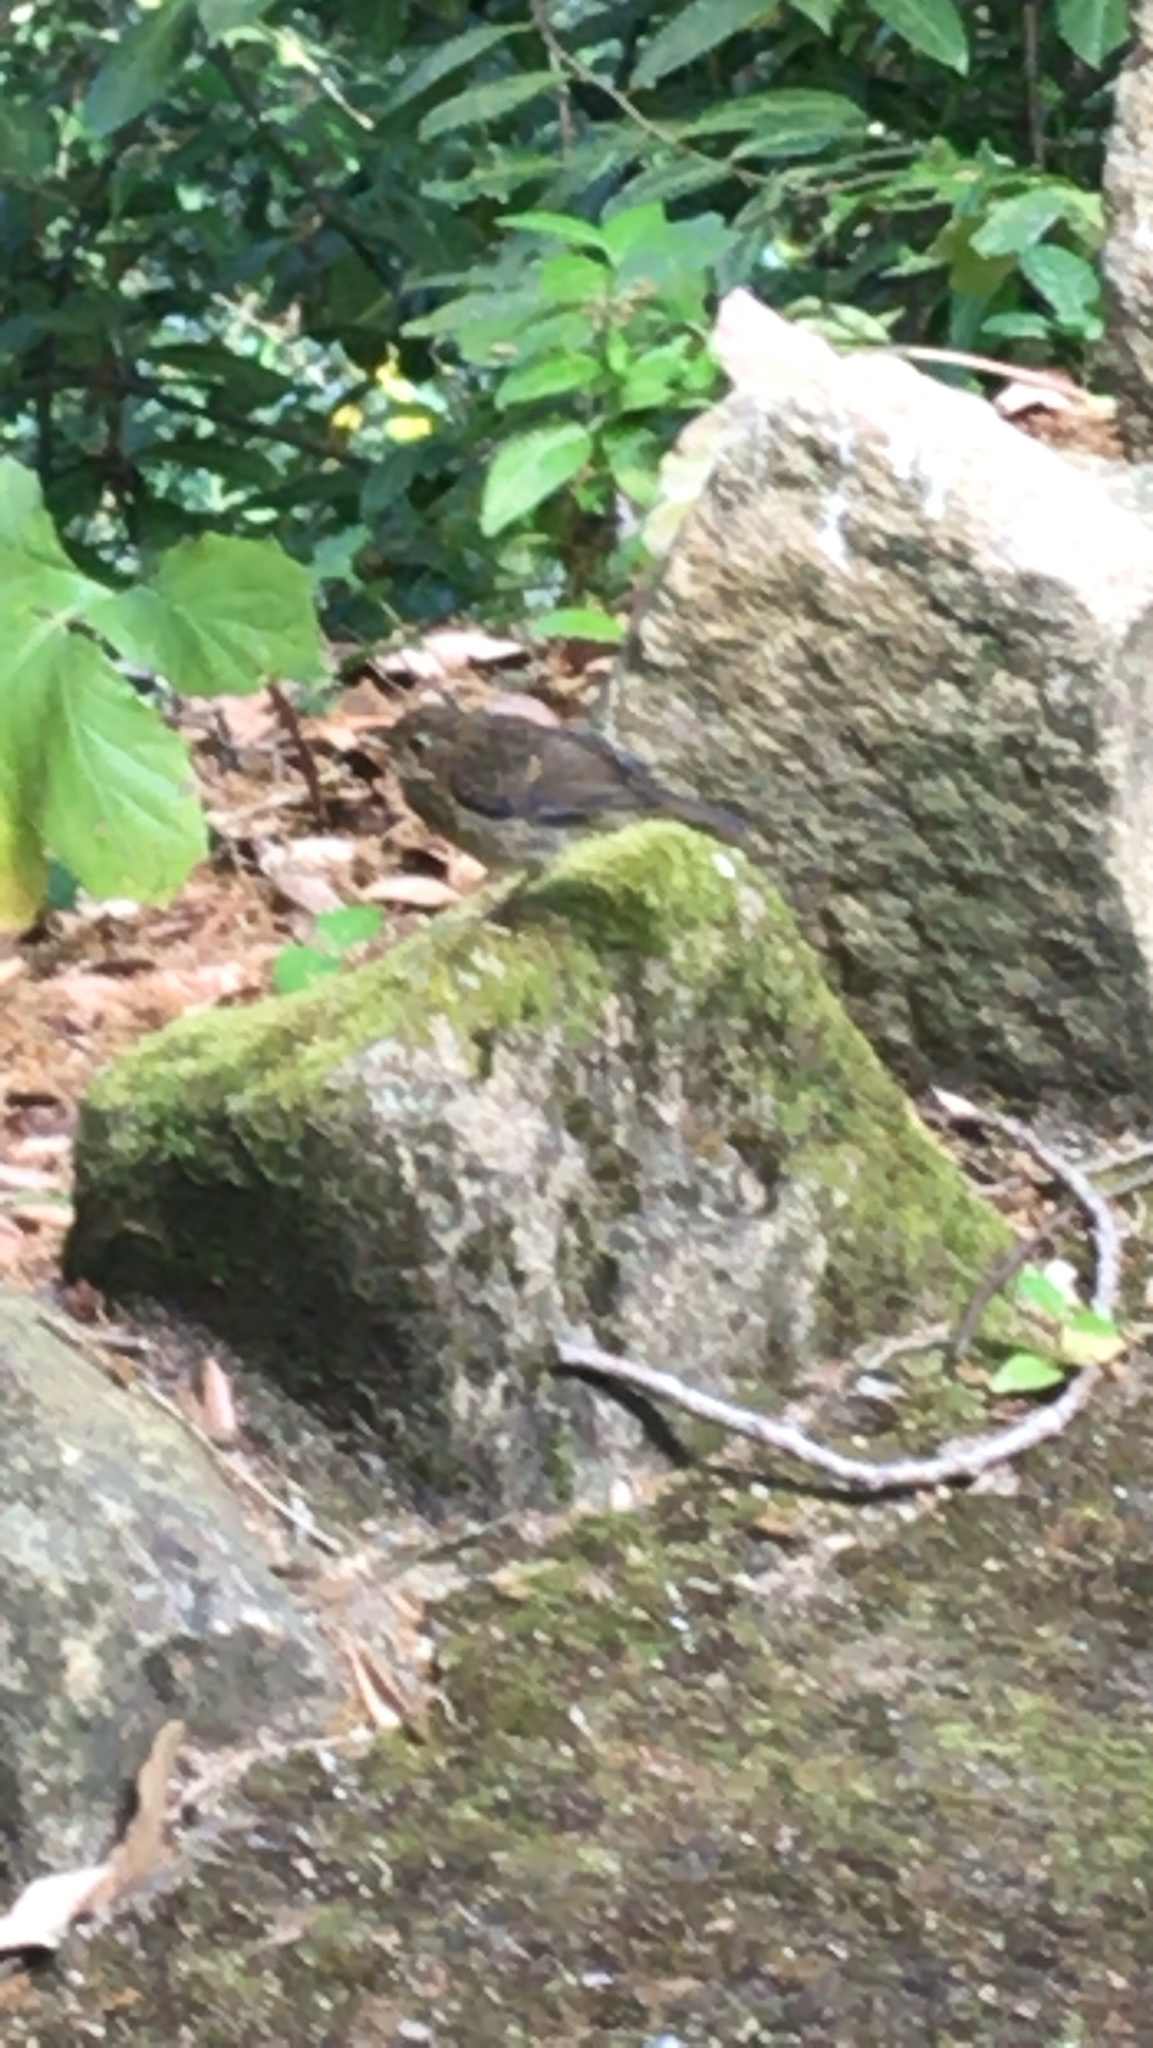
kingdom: Animalia
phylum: Chordata
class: Aves
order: Passeriformes
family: Muscicapidae
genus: Erithacus
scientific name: Erithacus rubecula
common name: European robin
